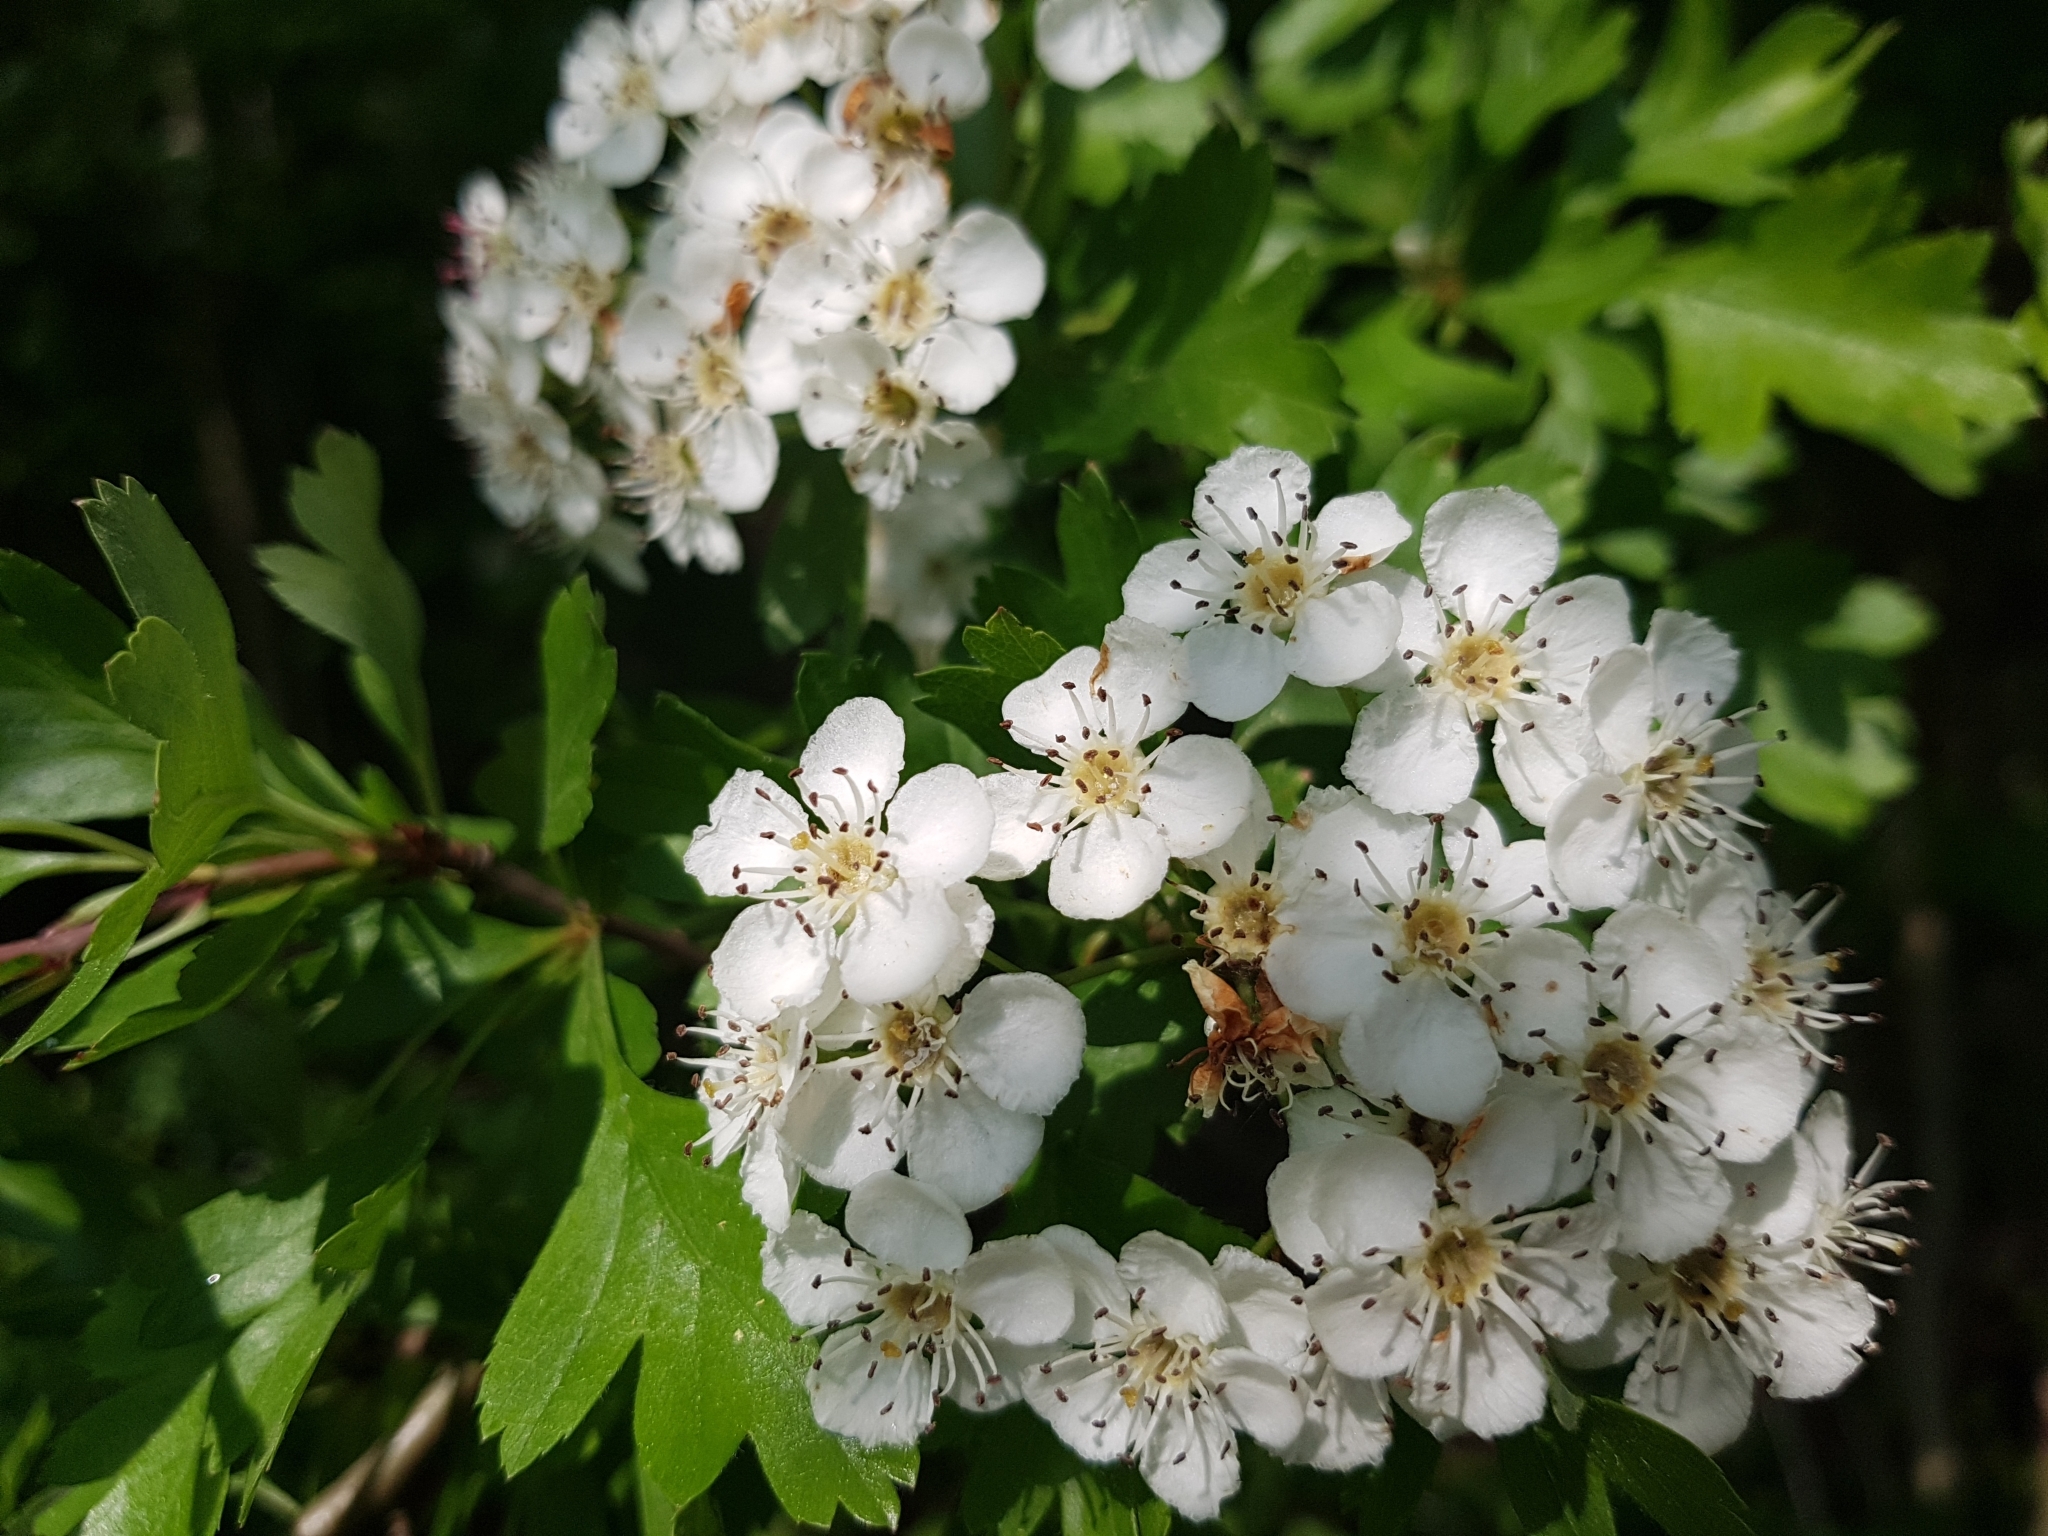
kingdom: Plantae
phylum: Tracheophyta
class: Magnoliopsida
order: Rosales
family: Rosaceae
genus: Crataegus
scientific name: Crataegus monogyna
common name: Hawthorn
